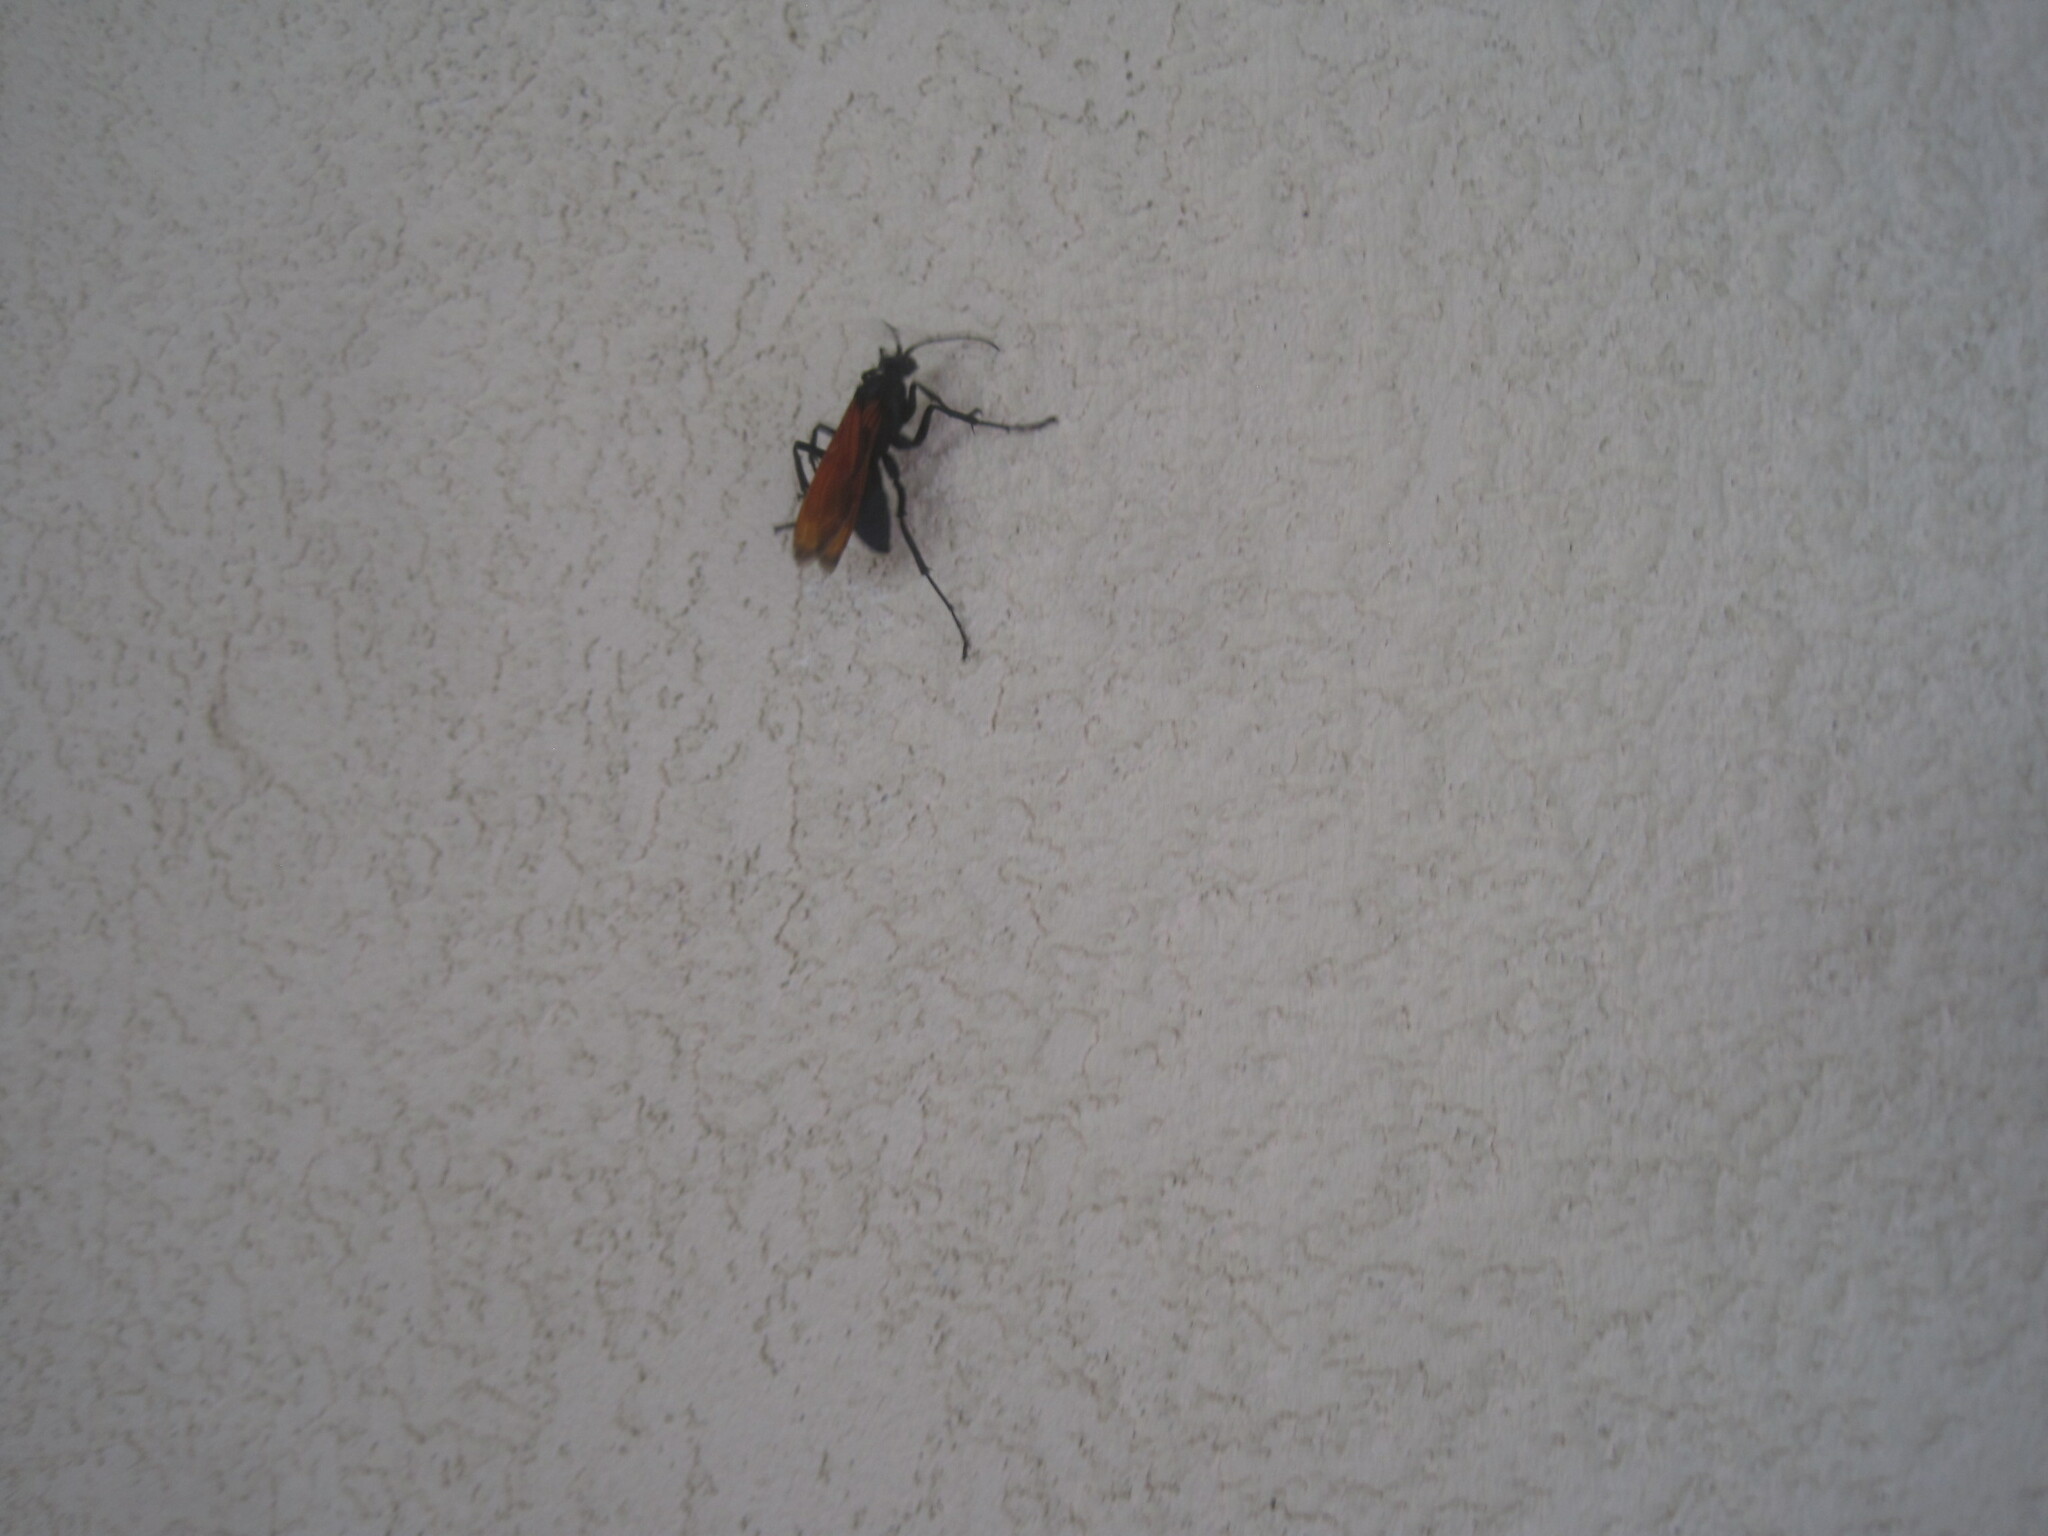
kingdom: Animalia
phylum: Arthropoda
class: Insecta
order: Hymenoptera
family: Pompilidae
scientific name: Pompilidae
